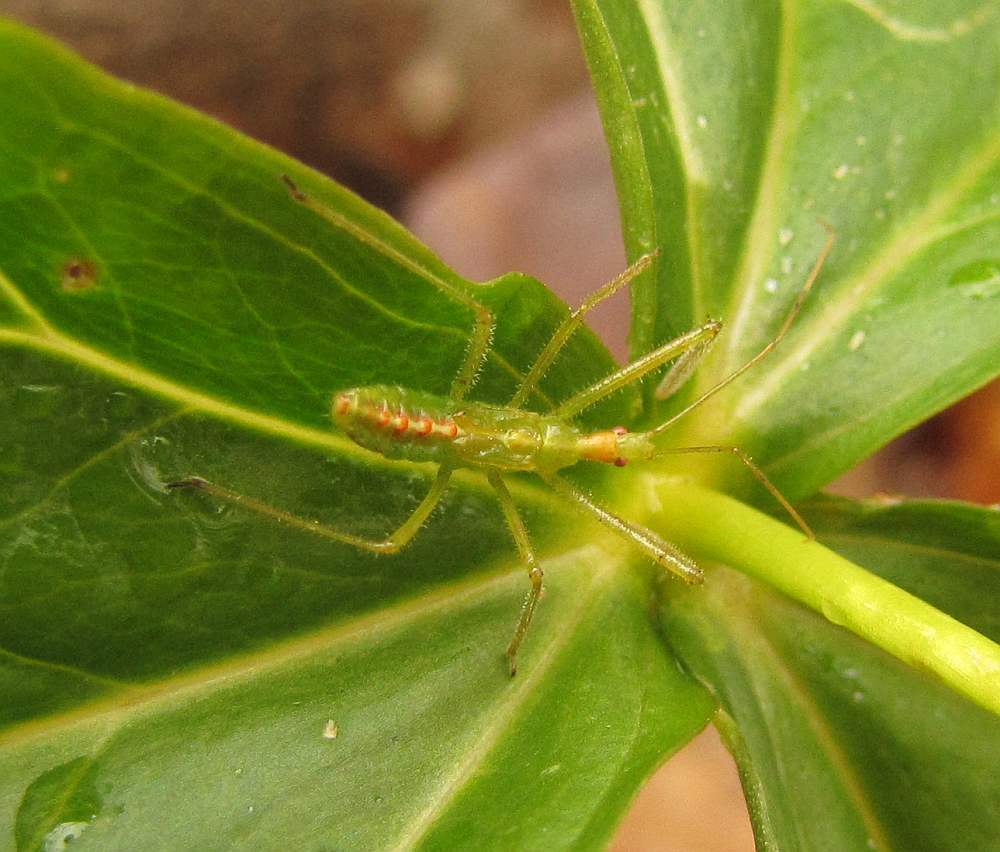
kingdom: Animalia
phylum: Arthropoda
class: Insecta
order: Hemiptera
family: Reduviidae
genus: Zelus
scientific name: Zelus luridus
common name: Pale green assassin bug
